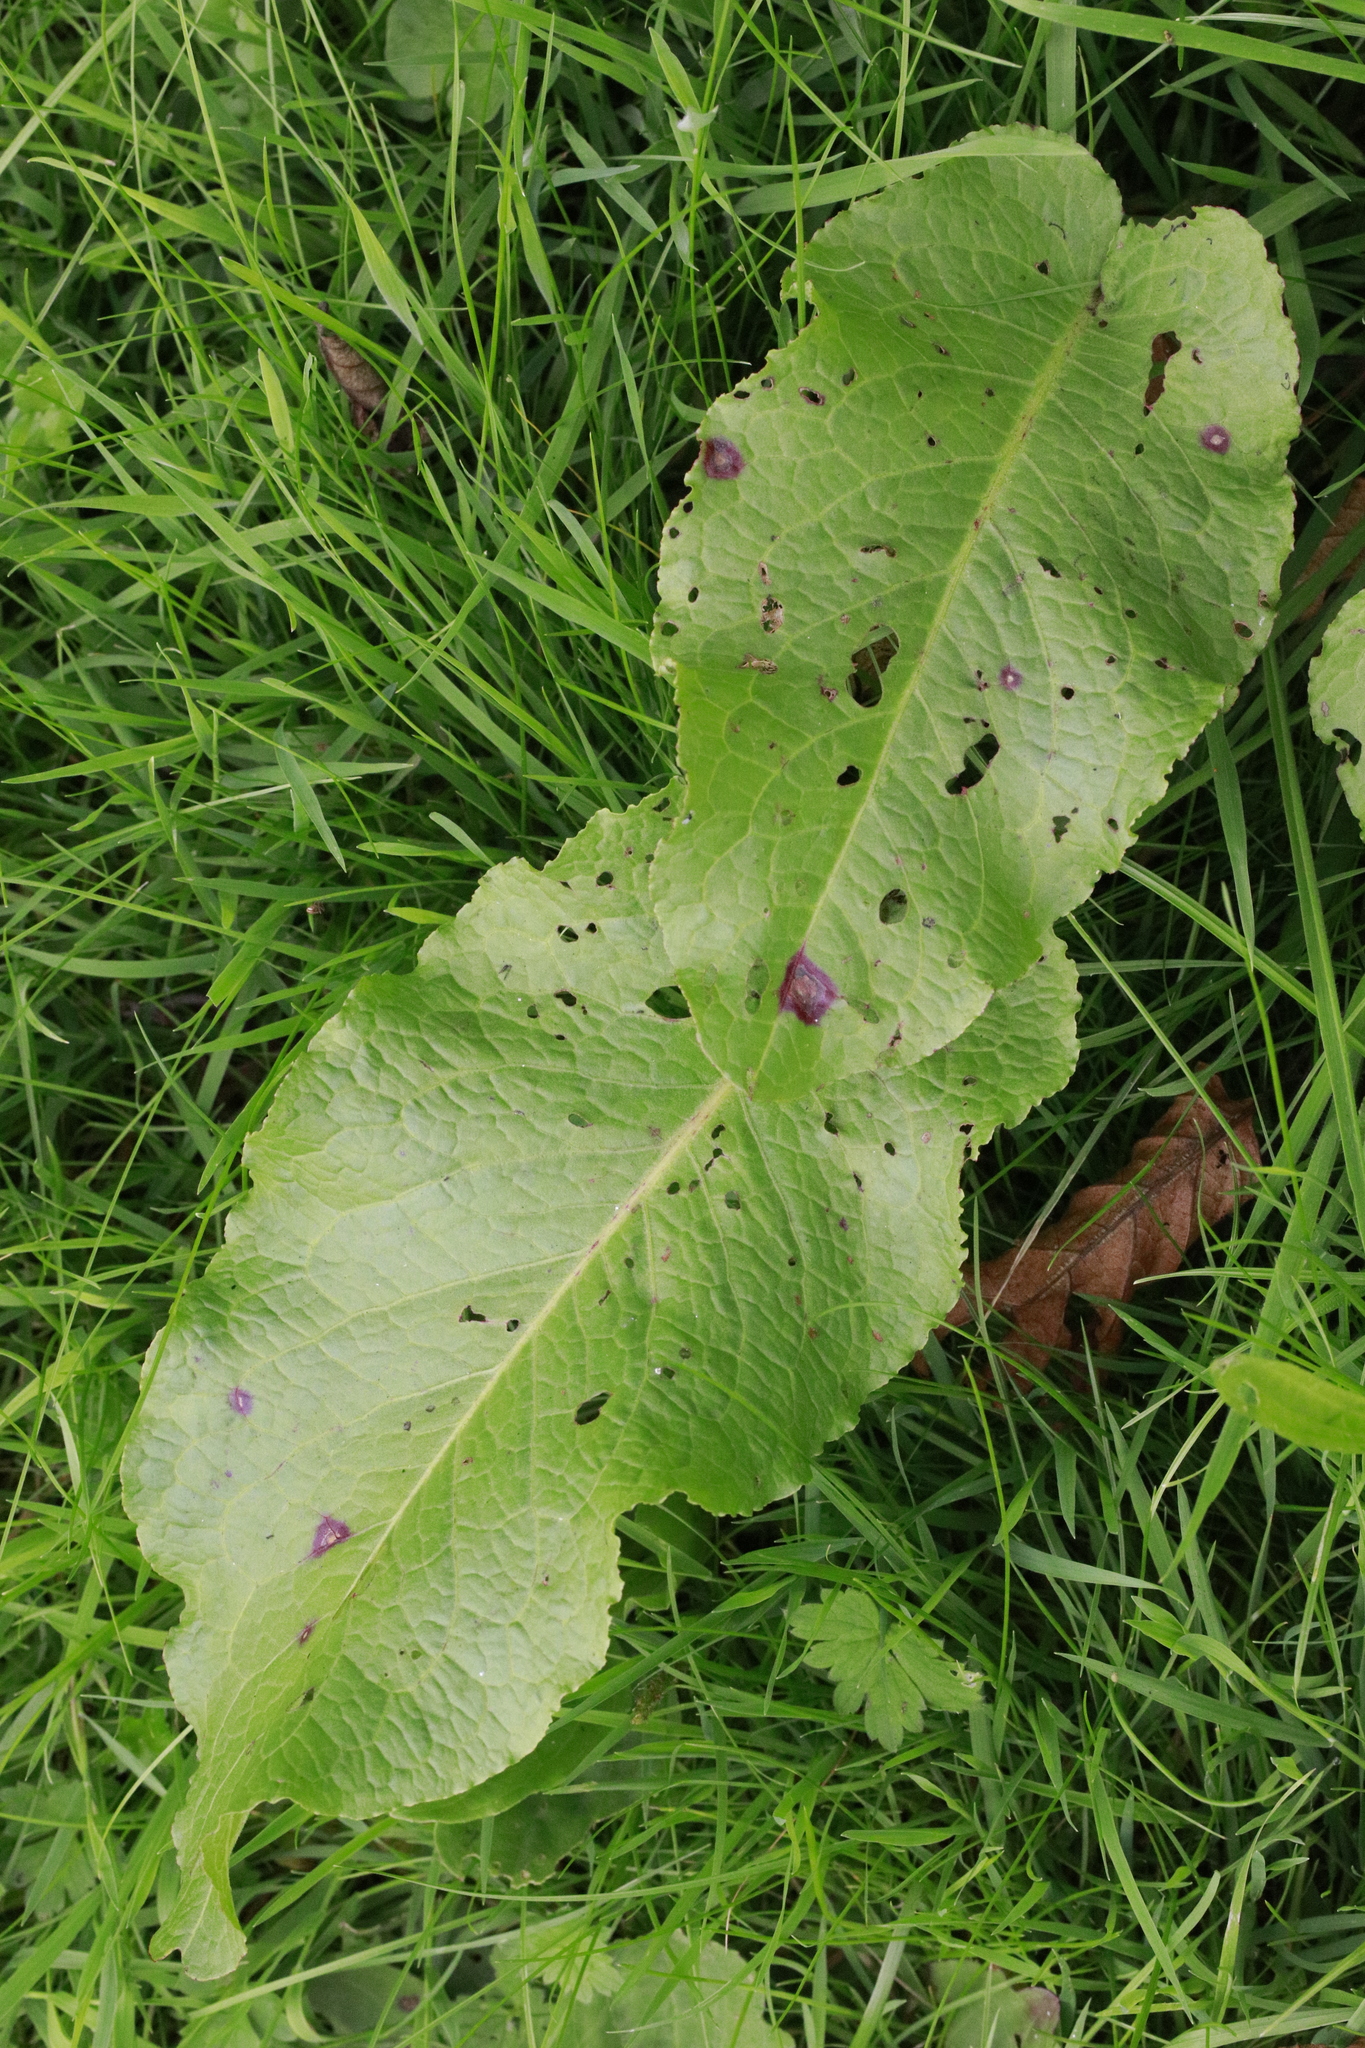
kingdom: Plantae
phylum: Tracheophyta
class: Magnoliopsida
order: Caryophyllales
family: Polygonaceae
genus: Rumex
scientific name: Rumex obtusifolius
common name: Bitter dock
